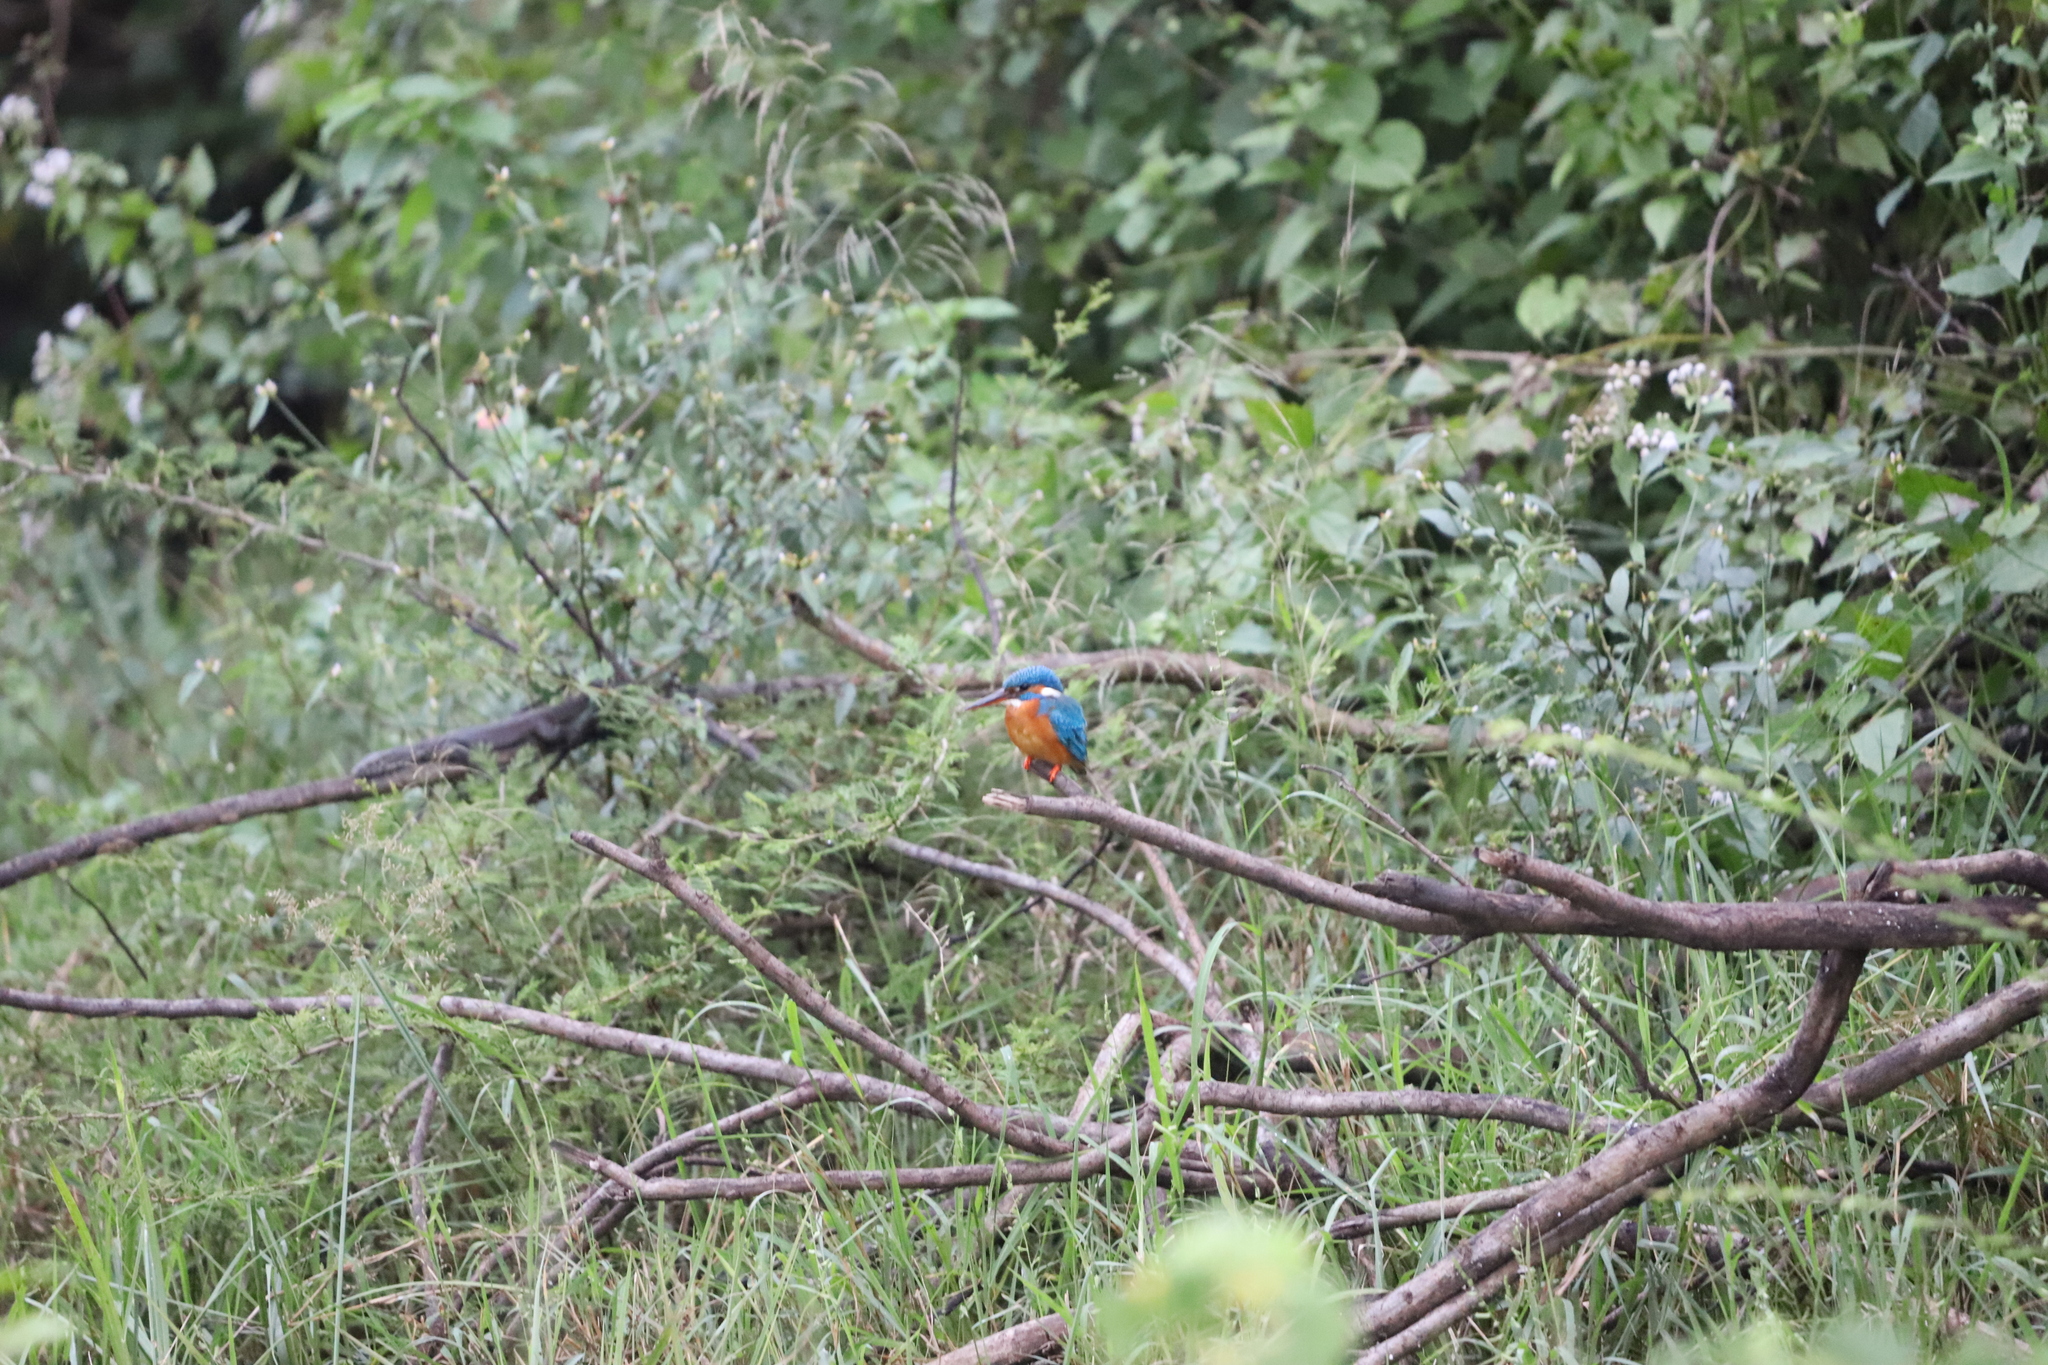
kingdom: Animalia
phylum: Chordata
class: Aves
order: Coraciiformes
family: Alcedinidae
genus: Alcedo
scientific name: Alcedo atthis
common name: Common kingfisher
